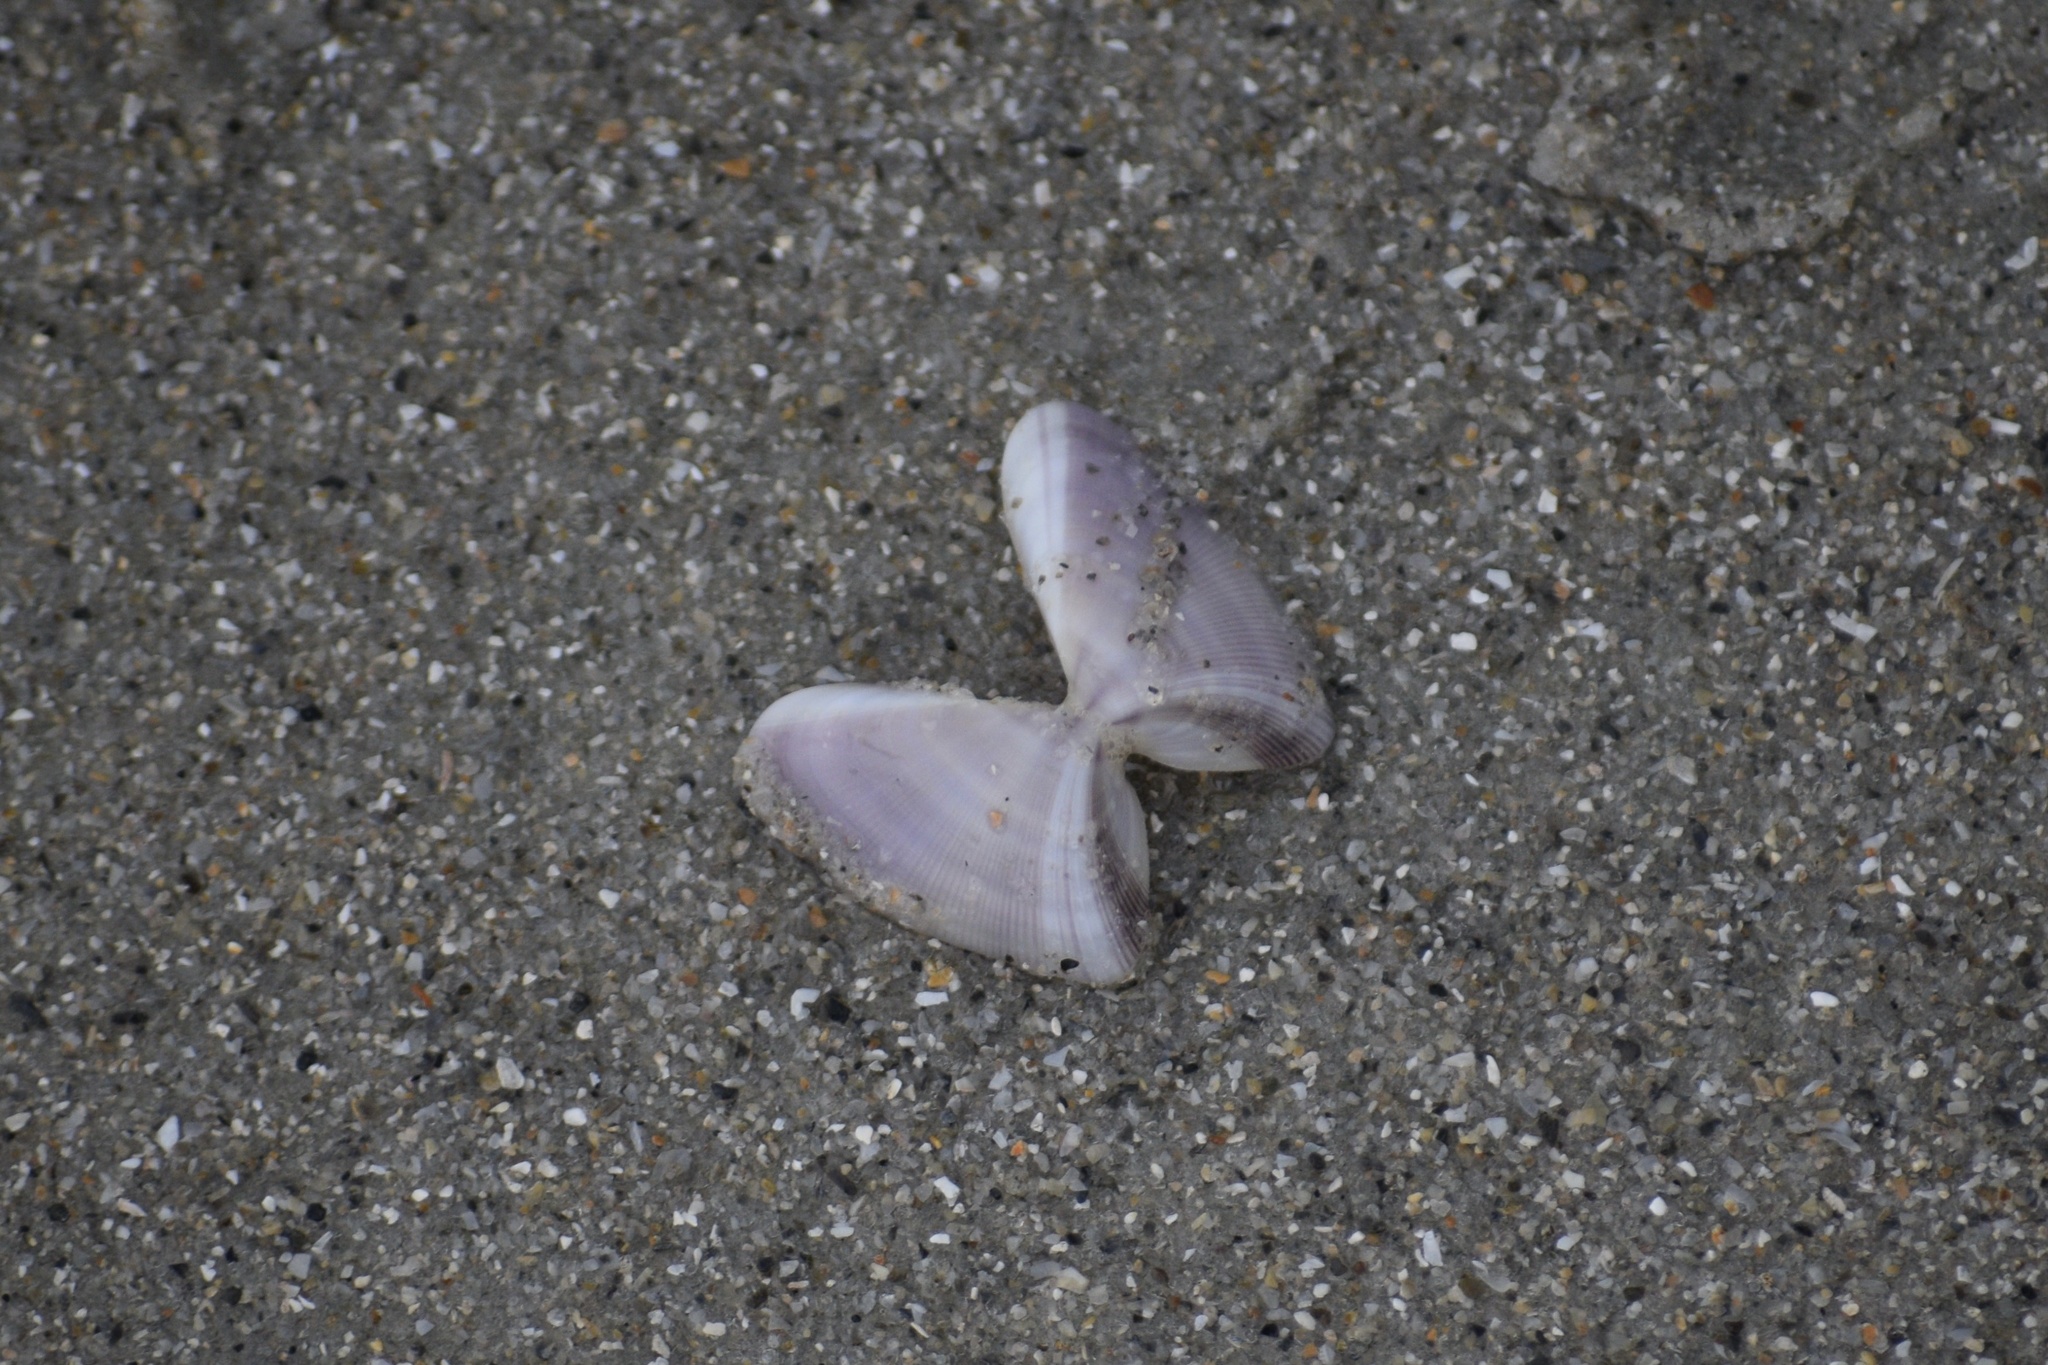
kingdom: Animalia
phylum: Mollusca
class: Bivalvia
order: Cardiida
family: Donacidae
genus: Donax
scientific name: Donax variabilis
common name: Butterfly shell
